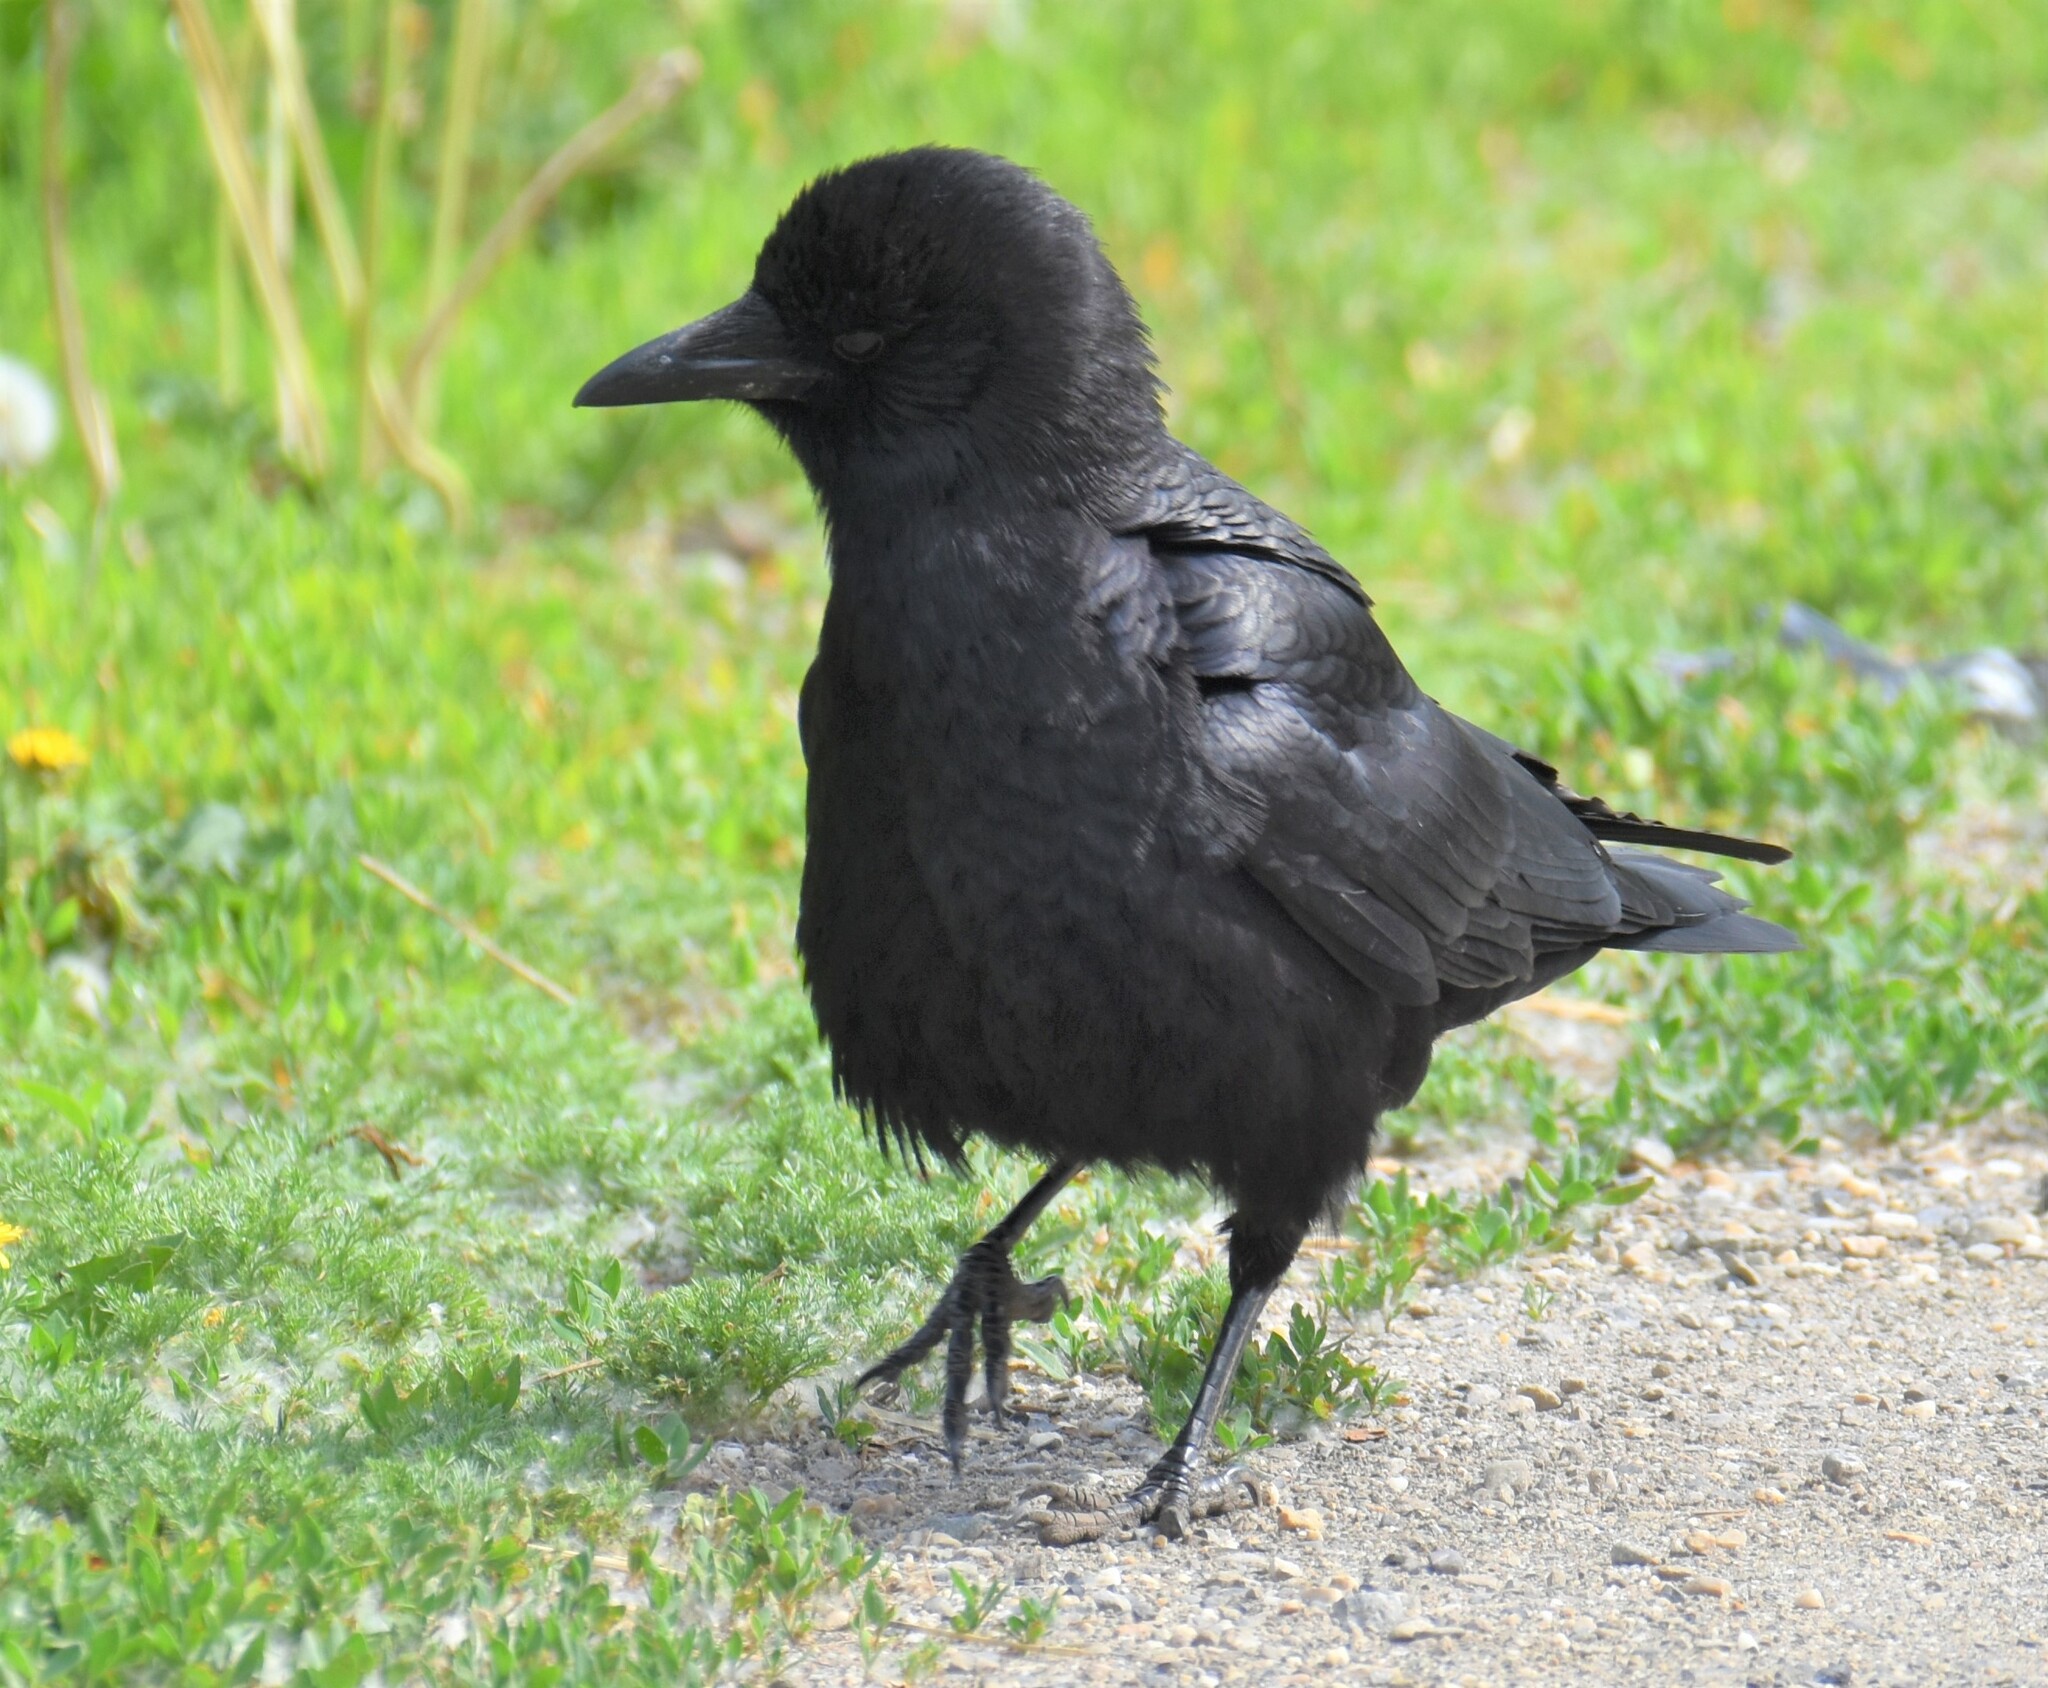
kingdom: Animalia
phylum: Chordata
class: Aves
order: Passeriformes
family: Corvidae
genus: Corvus
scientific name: Corvus brachyrhynchos
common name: American crow
